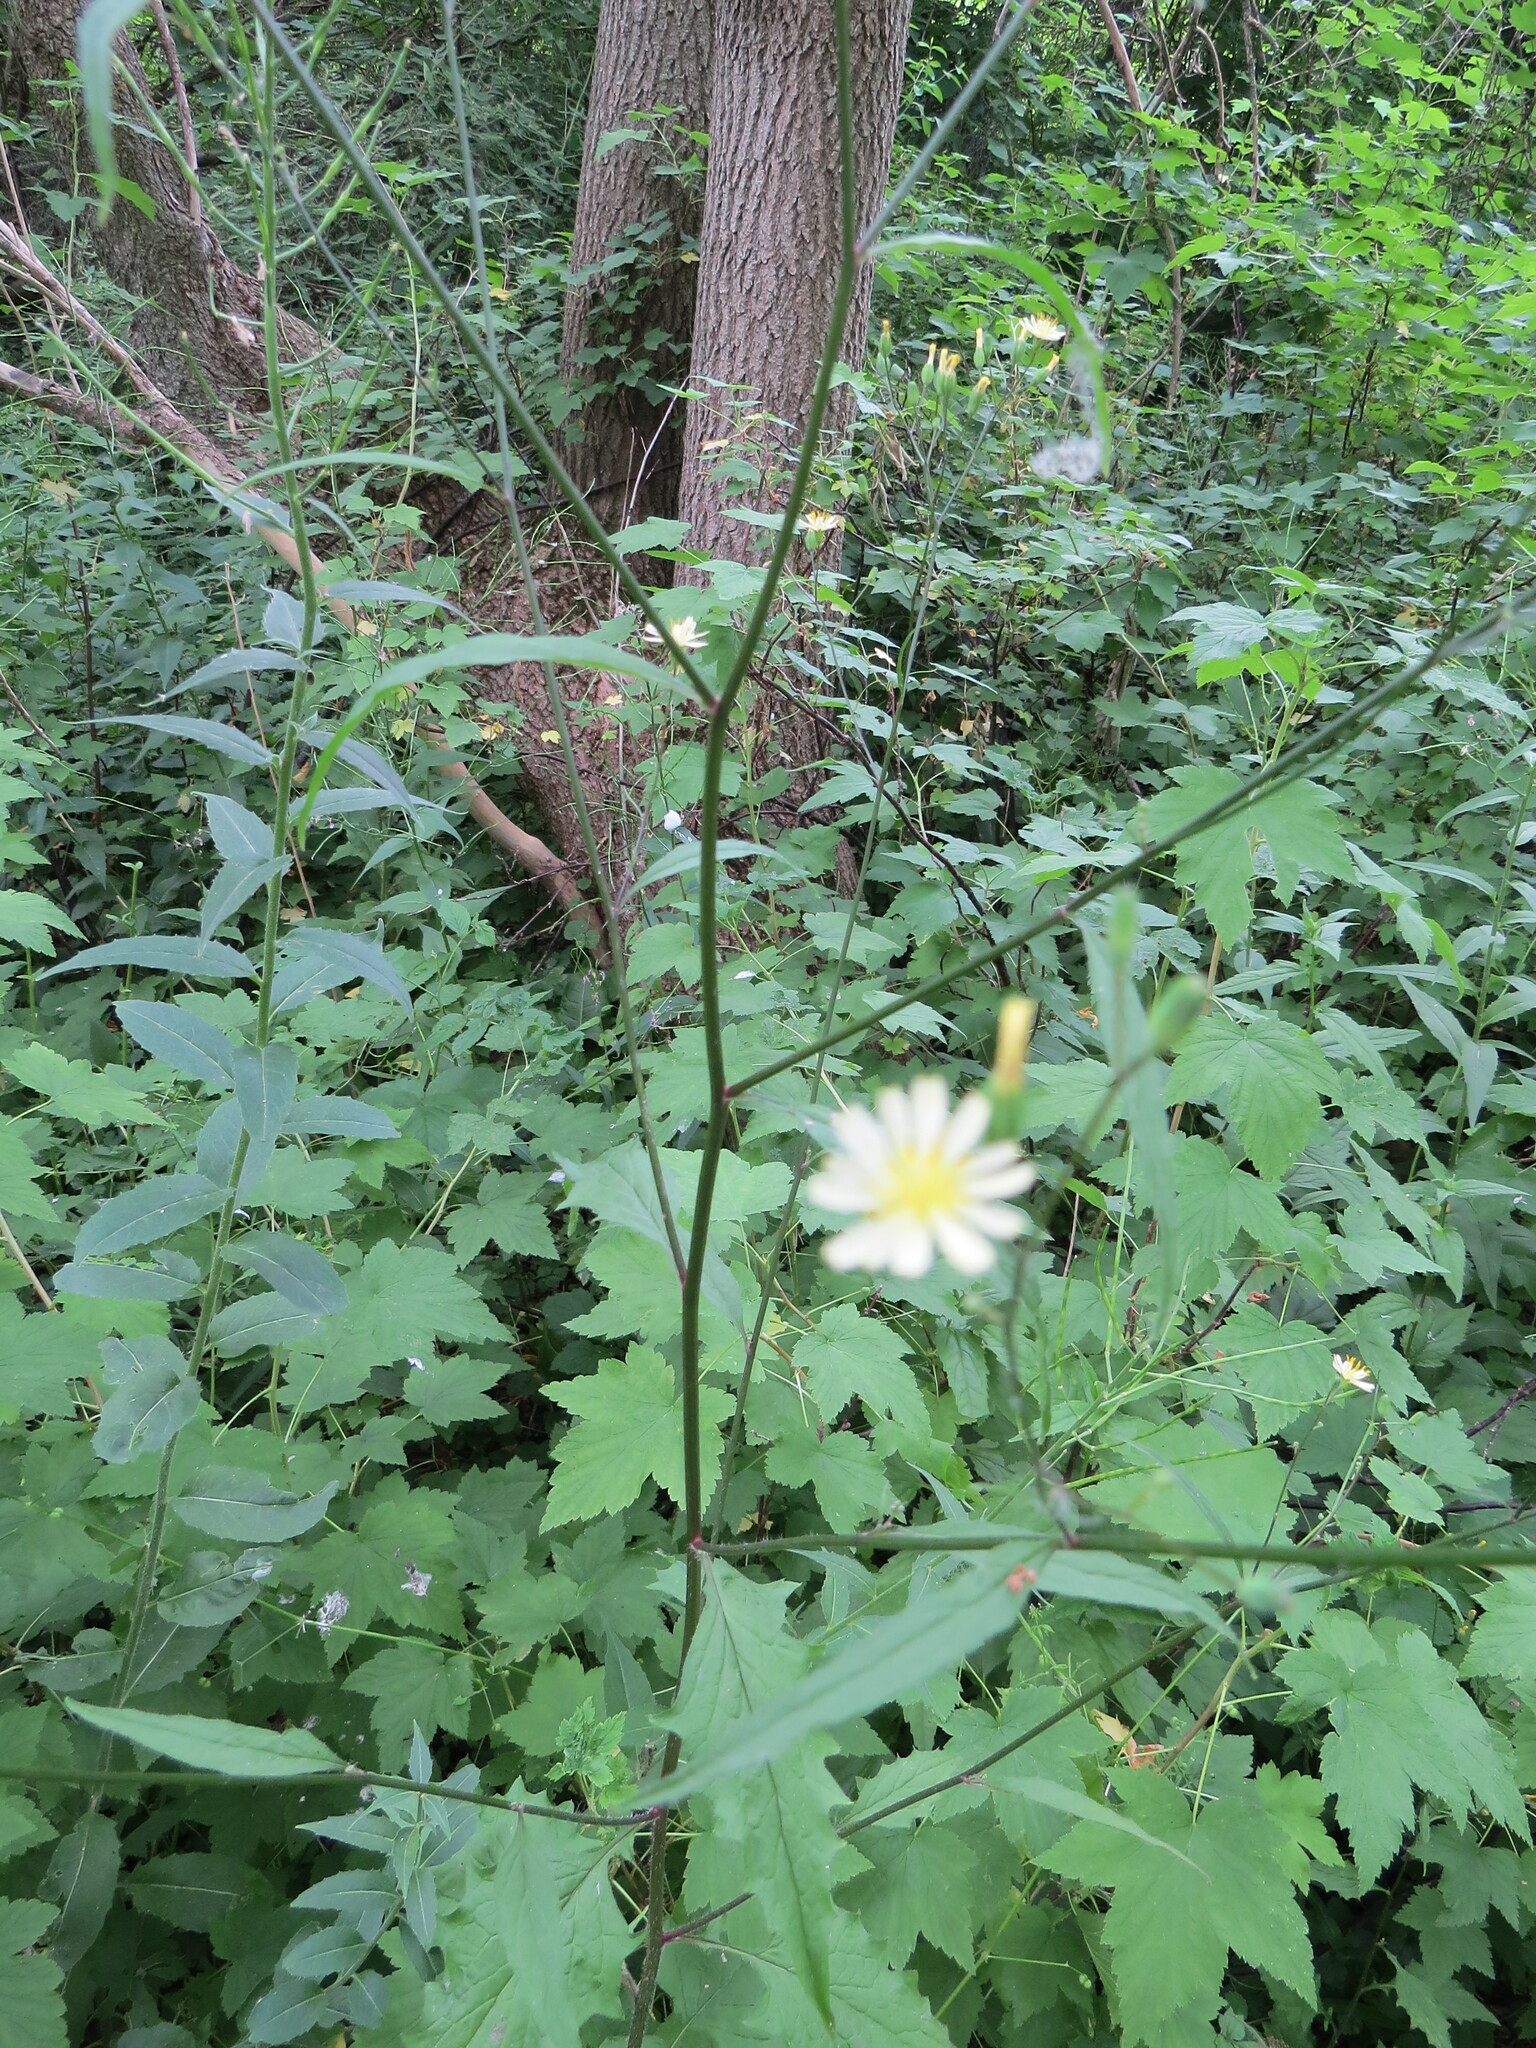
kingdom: Plantae
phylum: Tracheophyta
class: Magnoliopsida
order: Asterales
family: Asteraceae
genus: Lapsana
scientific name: Lapsana communis
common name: Nipplewort
